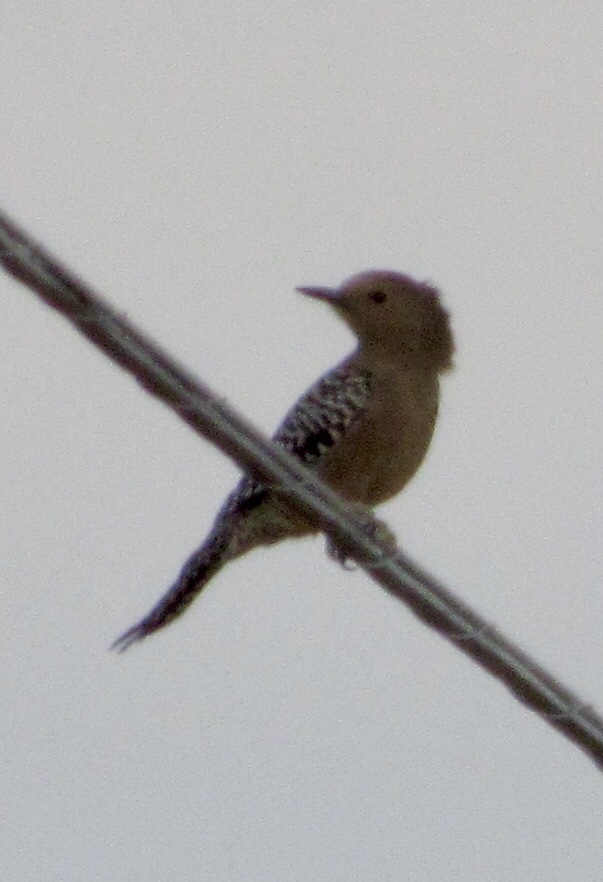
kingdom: Animalia
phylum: Chordata
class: Aves
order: Piciformes
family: Picidae
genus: Melanerpes
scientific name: Melanerpes uropygialis
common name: Gila woodpecker
